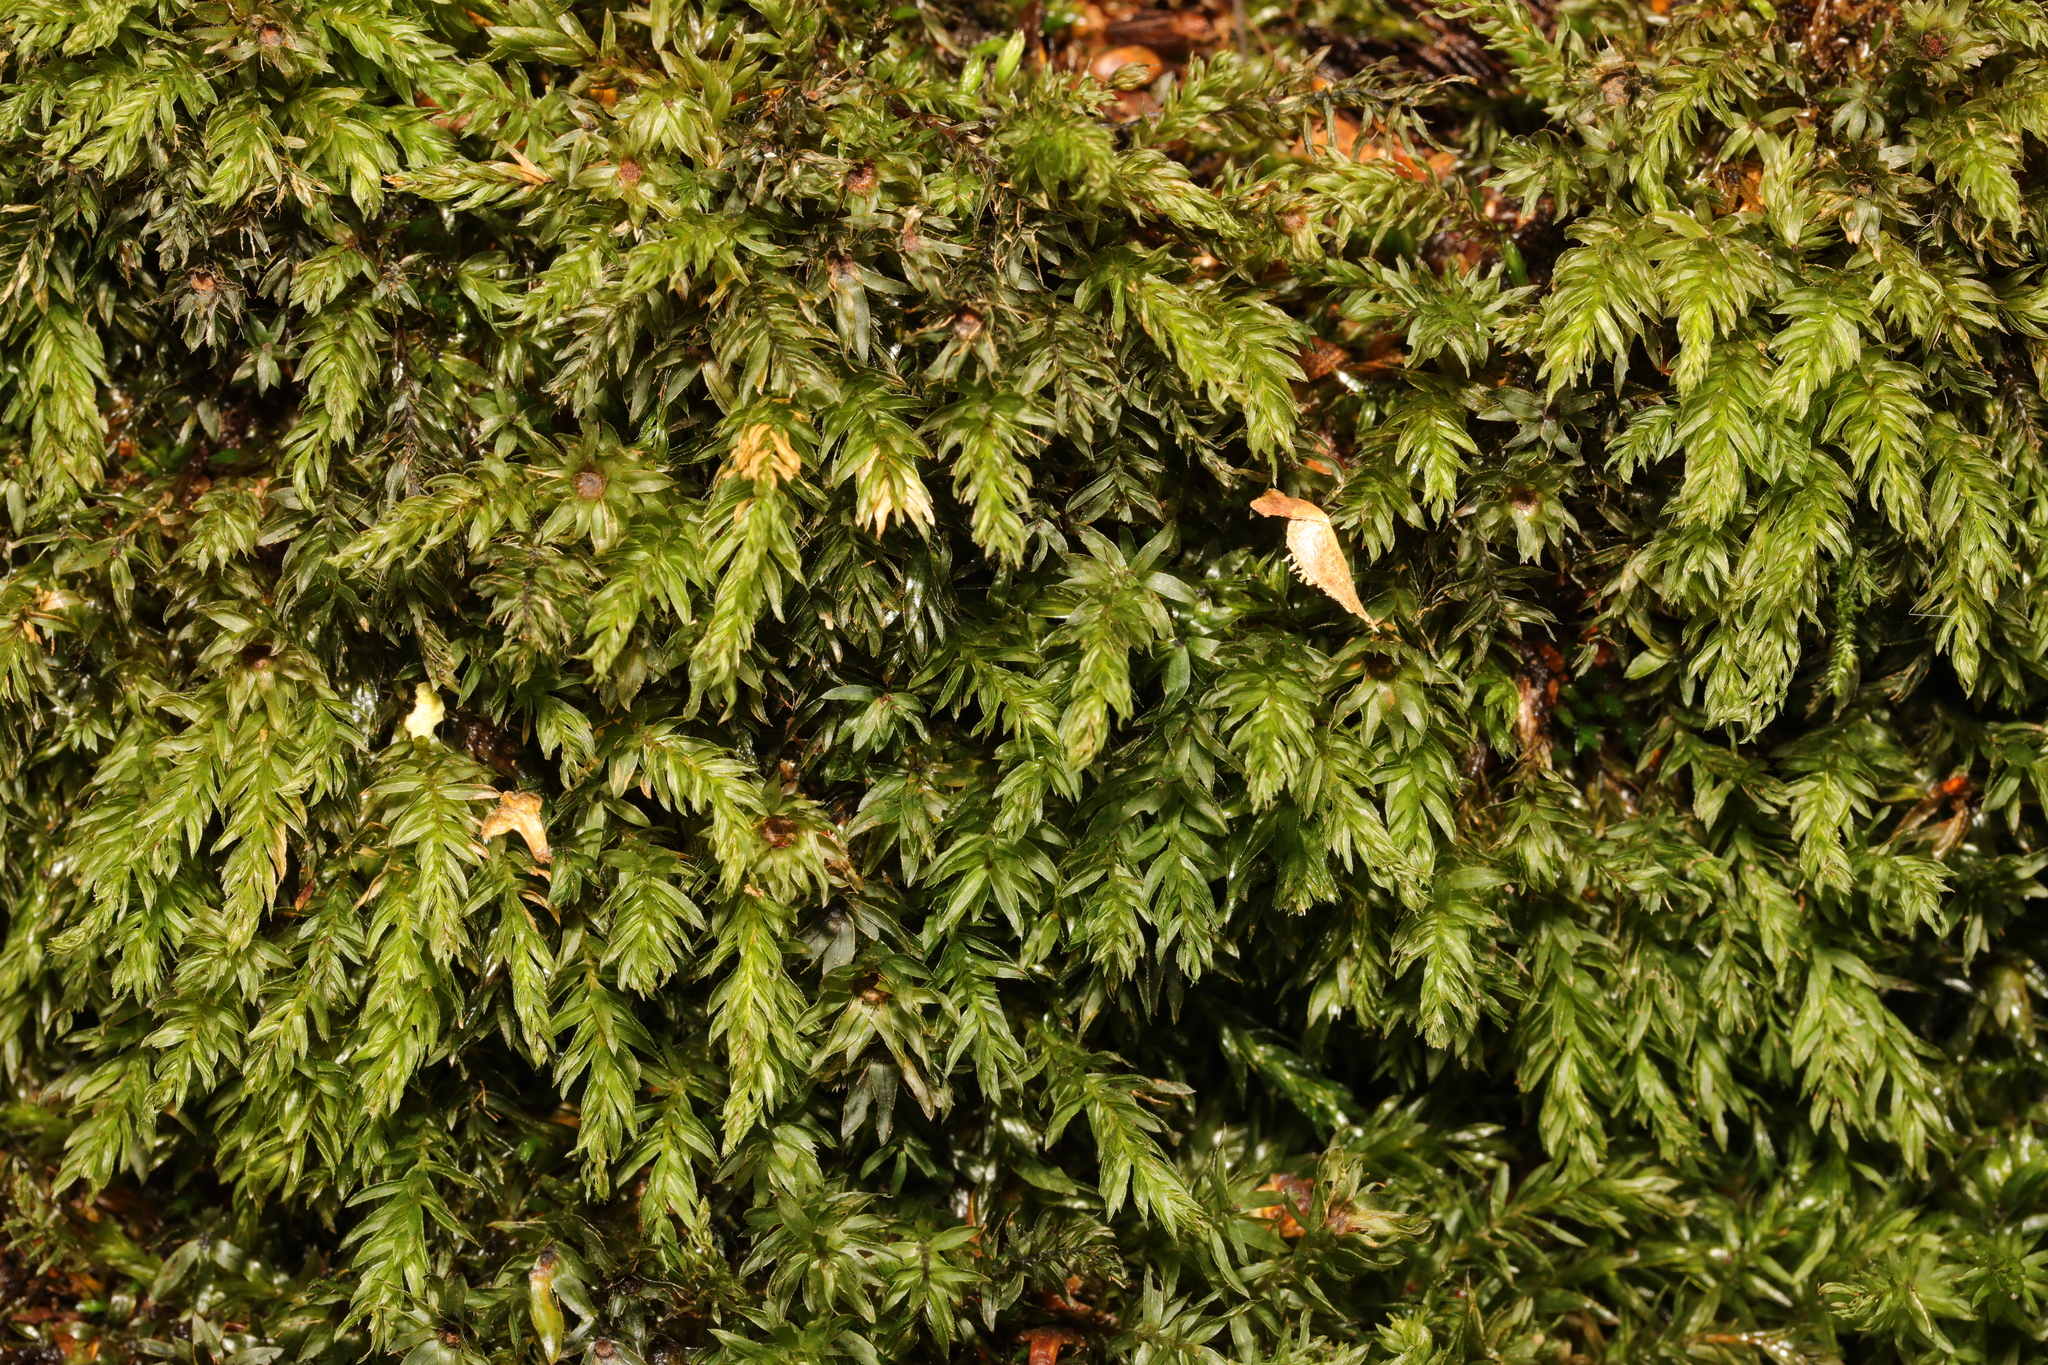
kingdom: Plantae
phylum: Bryophyta
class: Bryopsida
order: Bryales
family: Mniaceae
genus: Mnium
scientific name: Mnium hornum
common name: Swan's-neck leafy moss
